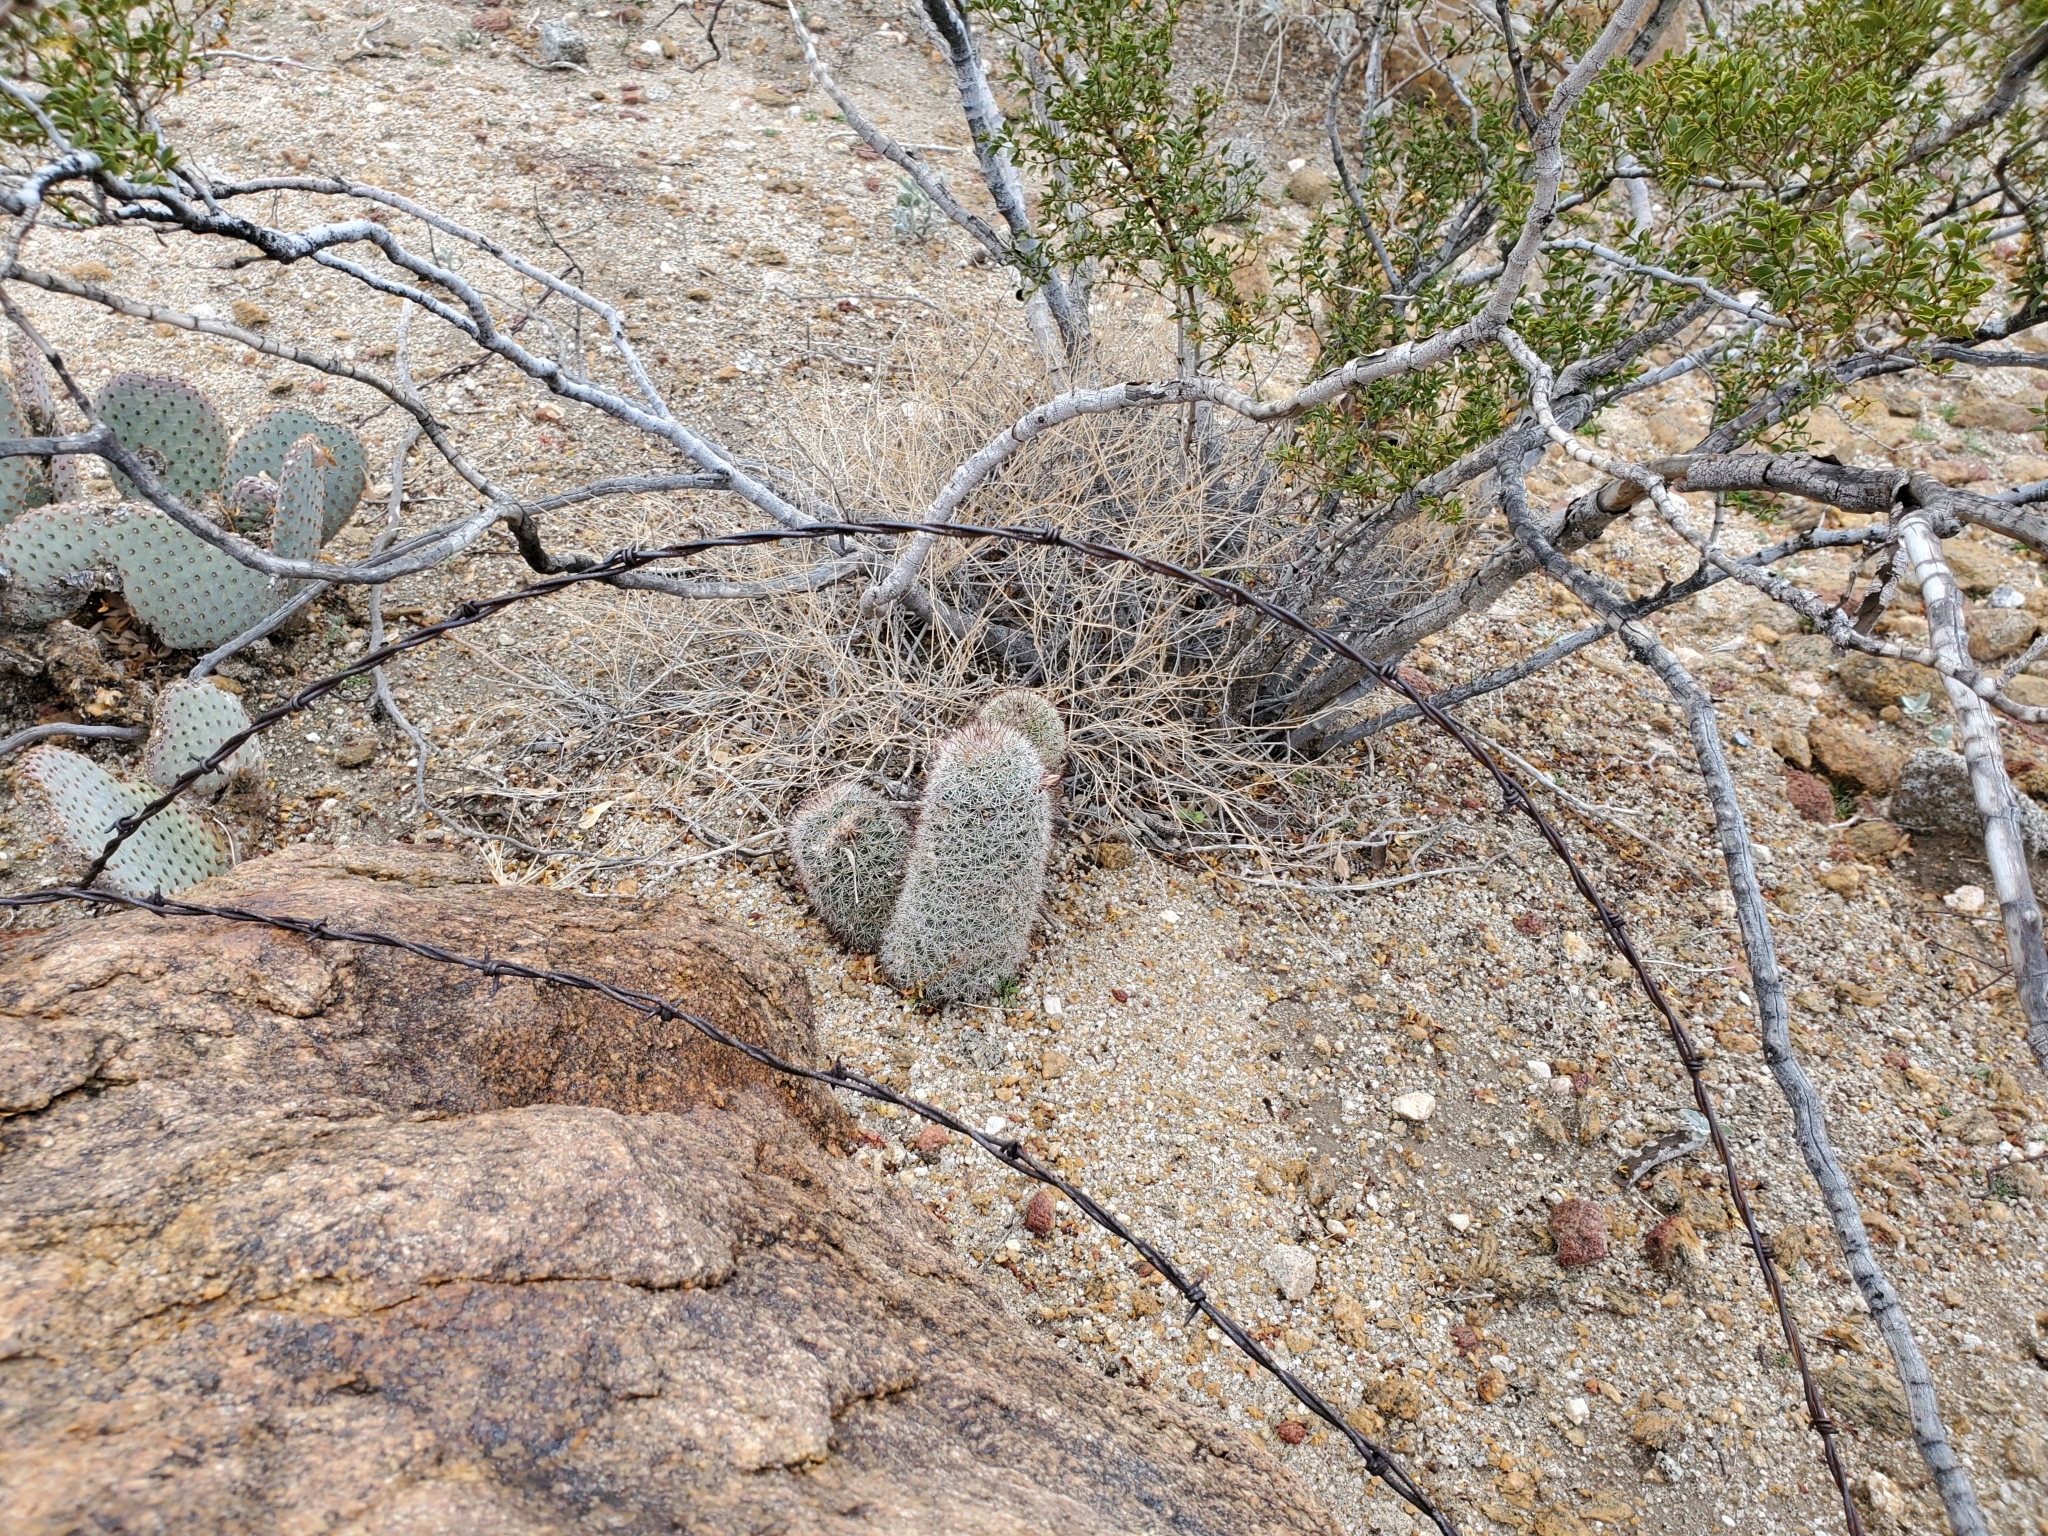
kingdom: Plantae
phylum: Tracheophyta
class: Magnoliopsida
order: Caryophyllales
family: Cactaceae
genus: Cochemiea
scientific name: Cochemiea dioica
